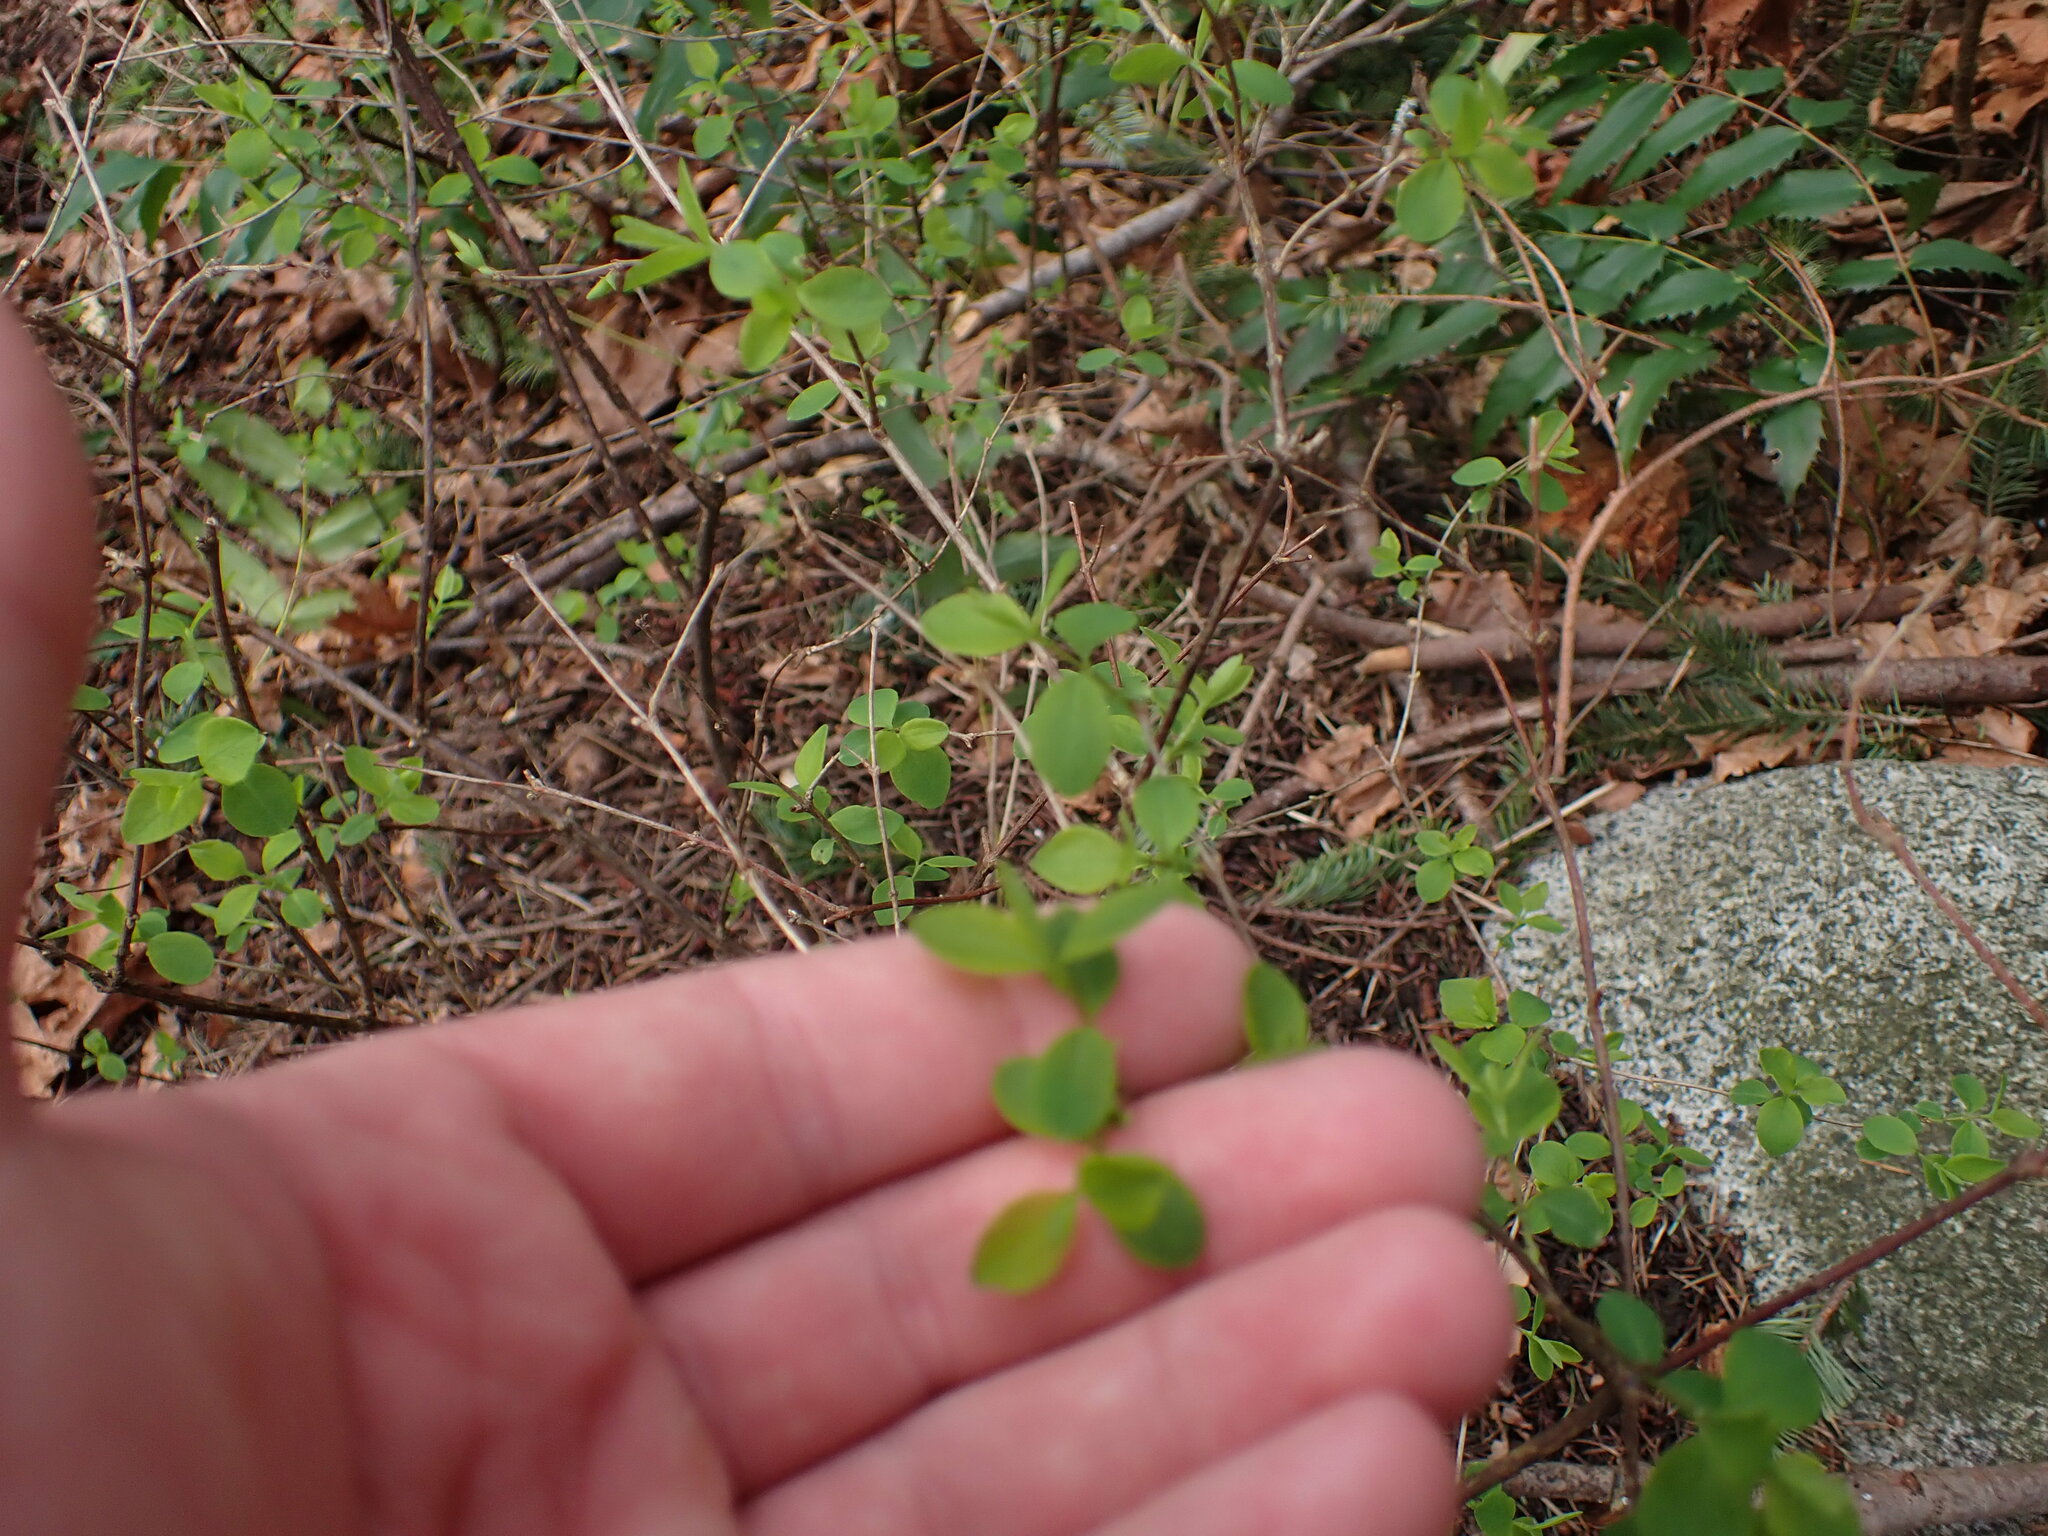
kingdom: Plantae
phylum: Tracheophyta
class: Magnoliopsida
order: Dipsacales
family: Caprifoliaceae
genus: Symphoricarpos
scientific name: Symphoricarpos albus
